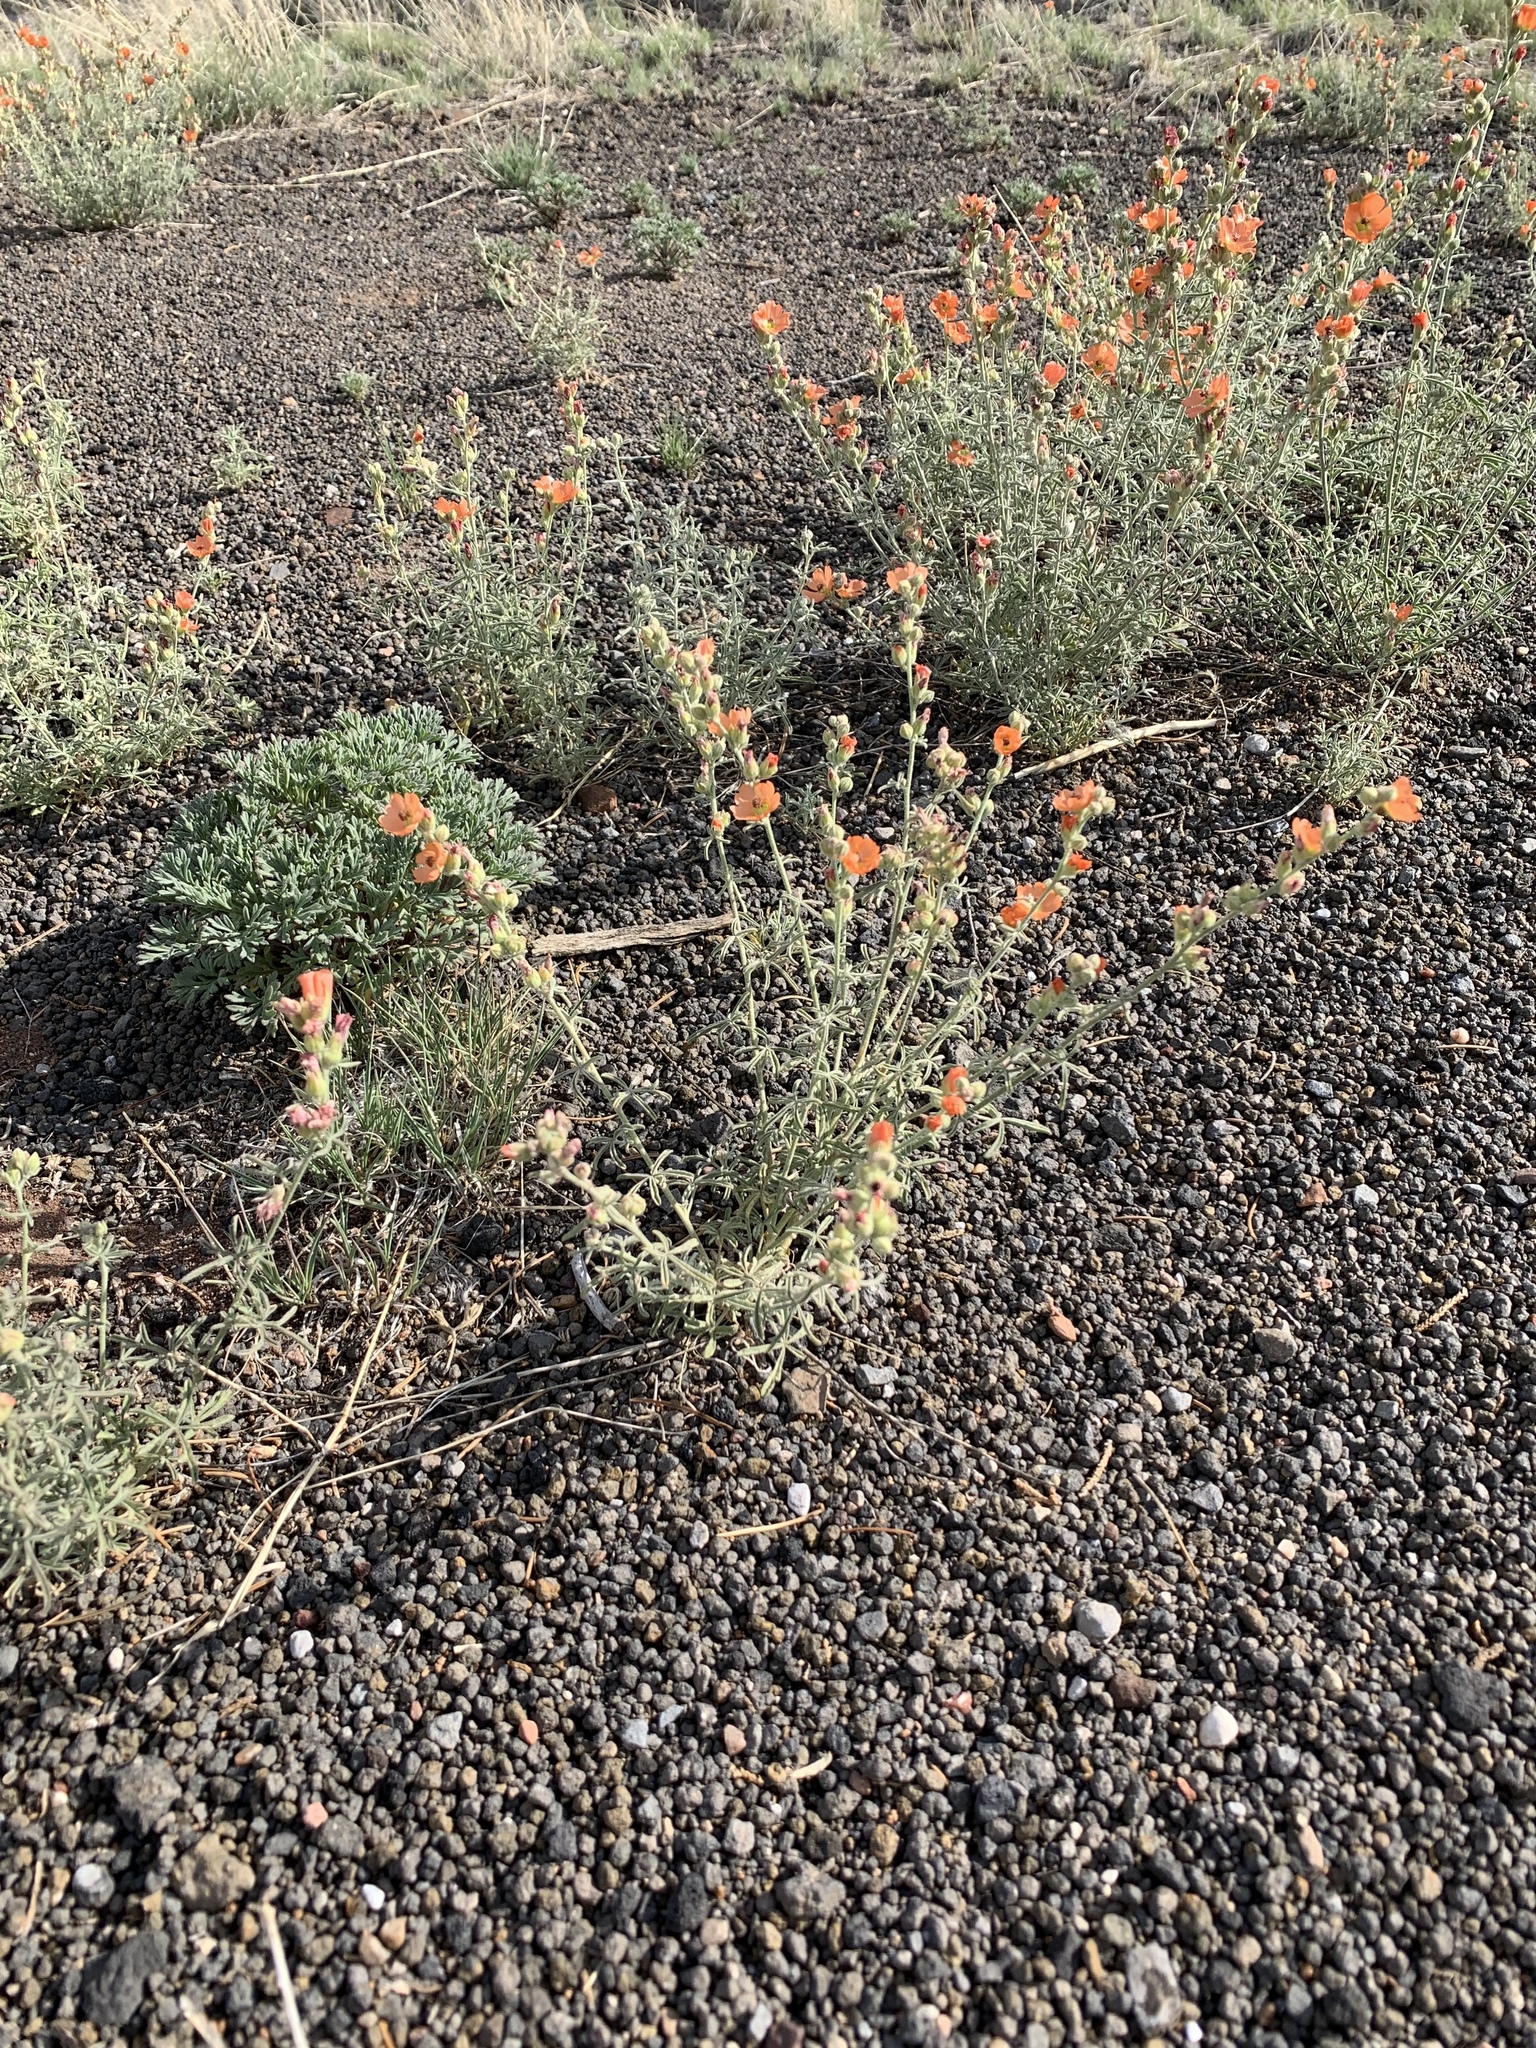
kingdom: Plantae
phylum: Tracheophyta
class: Magnoliopsida
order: Malvales
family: Malvaceae
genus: Sphaeralcea
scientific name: Sphaeralcea ambigua
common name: Apricot globe-mallow
